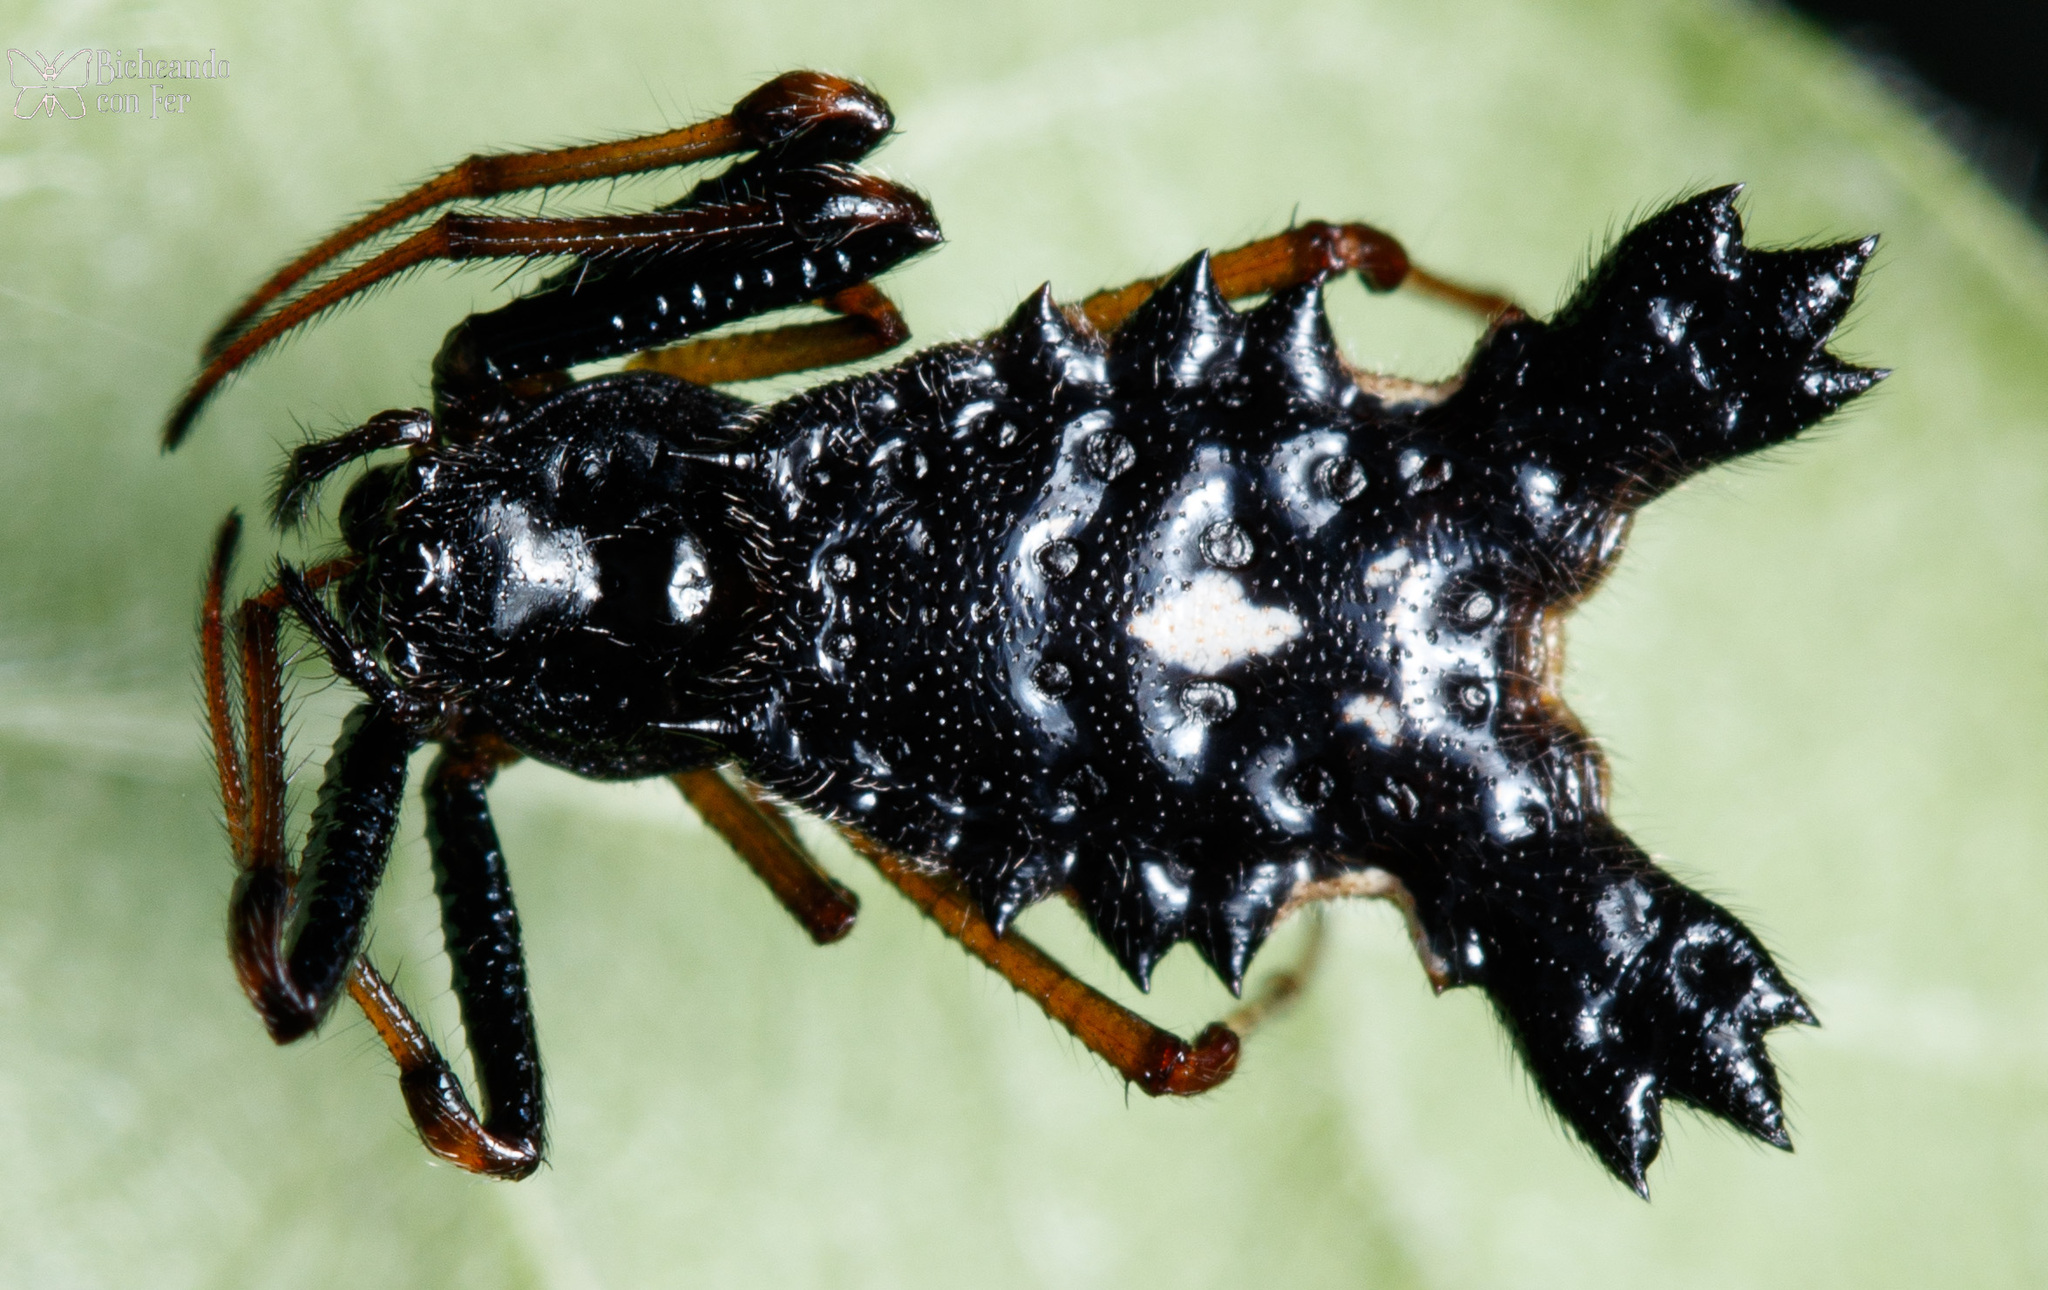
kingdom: Animalia
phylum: Arthropoda
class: Arachnida
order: Araneae
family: Araneidae
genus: Micrathena
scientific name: Micrathena triserrata
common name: Orb weavers
